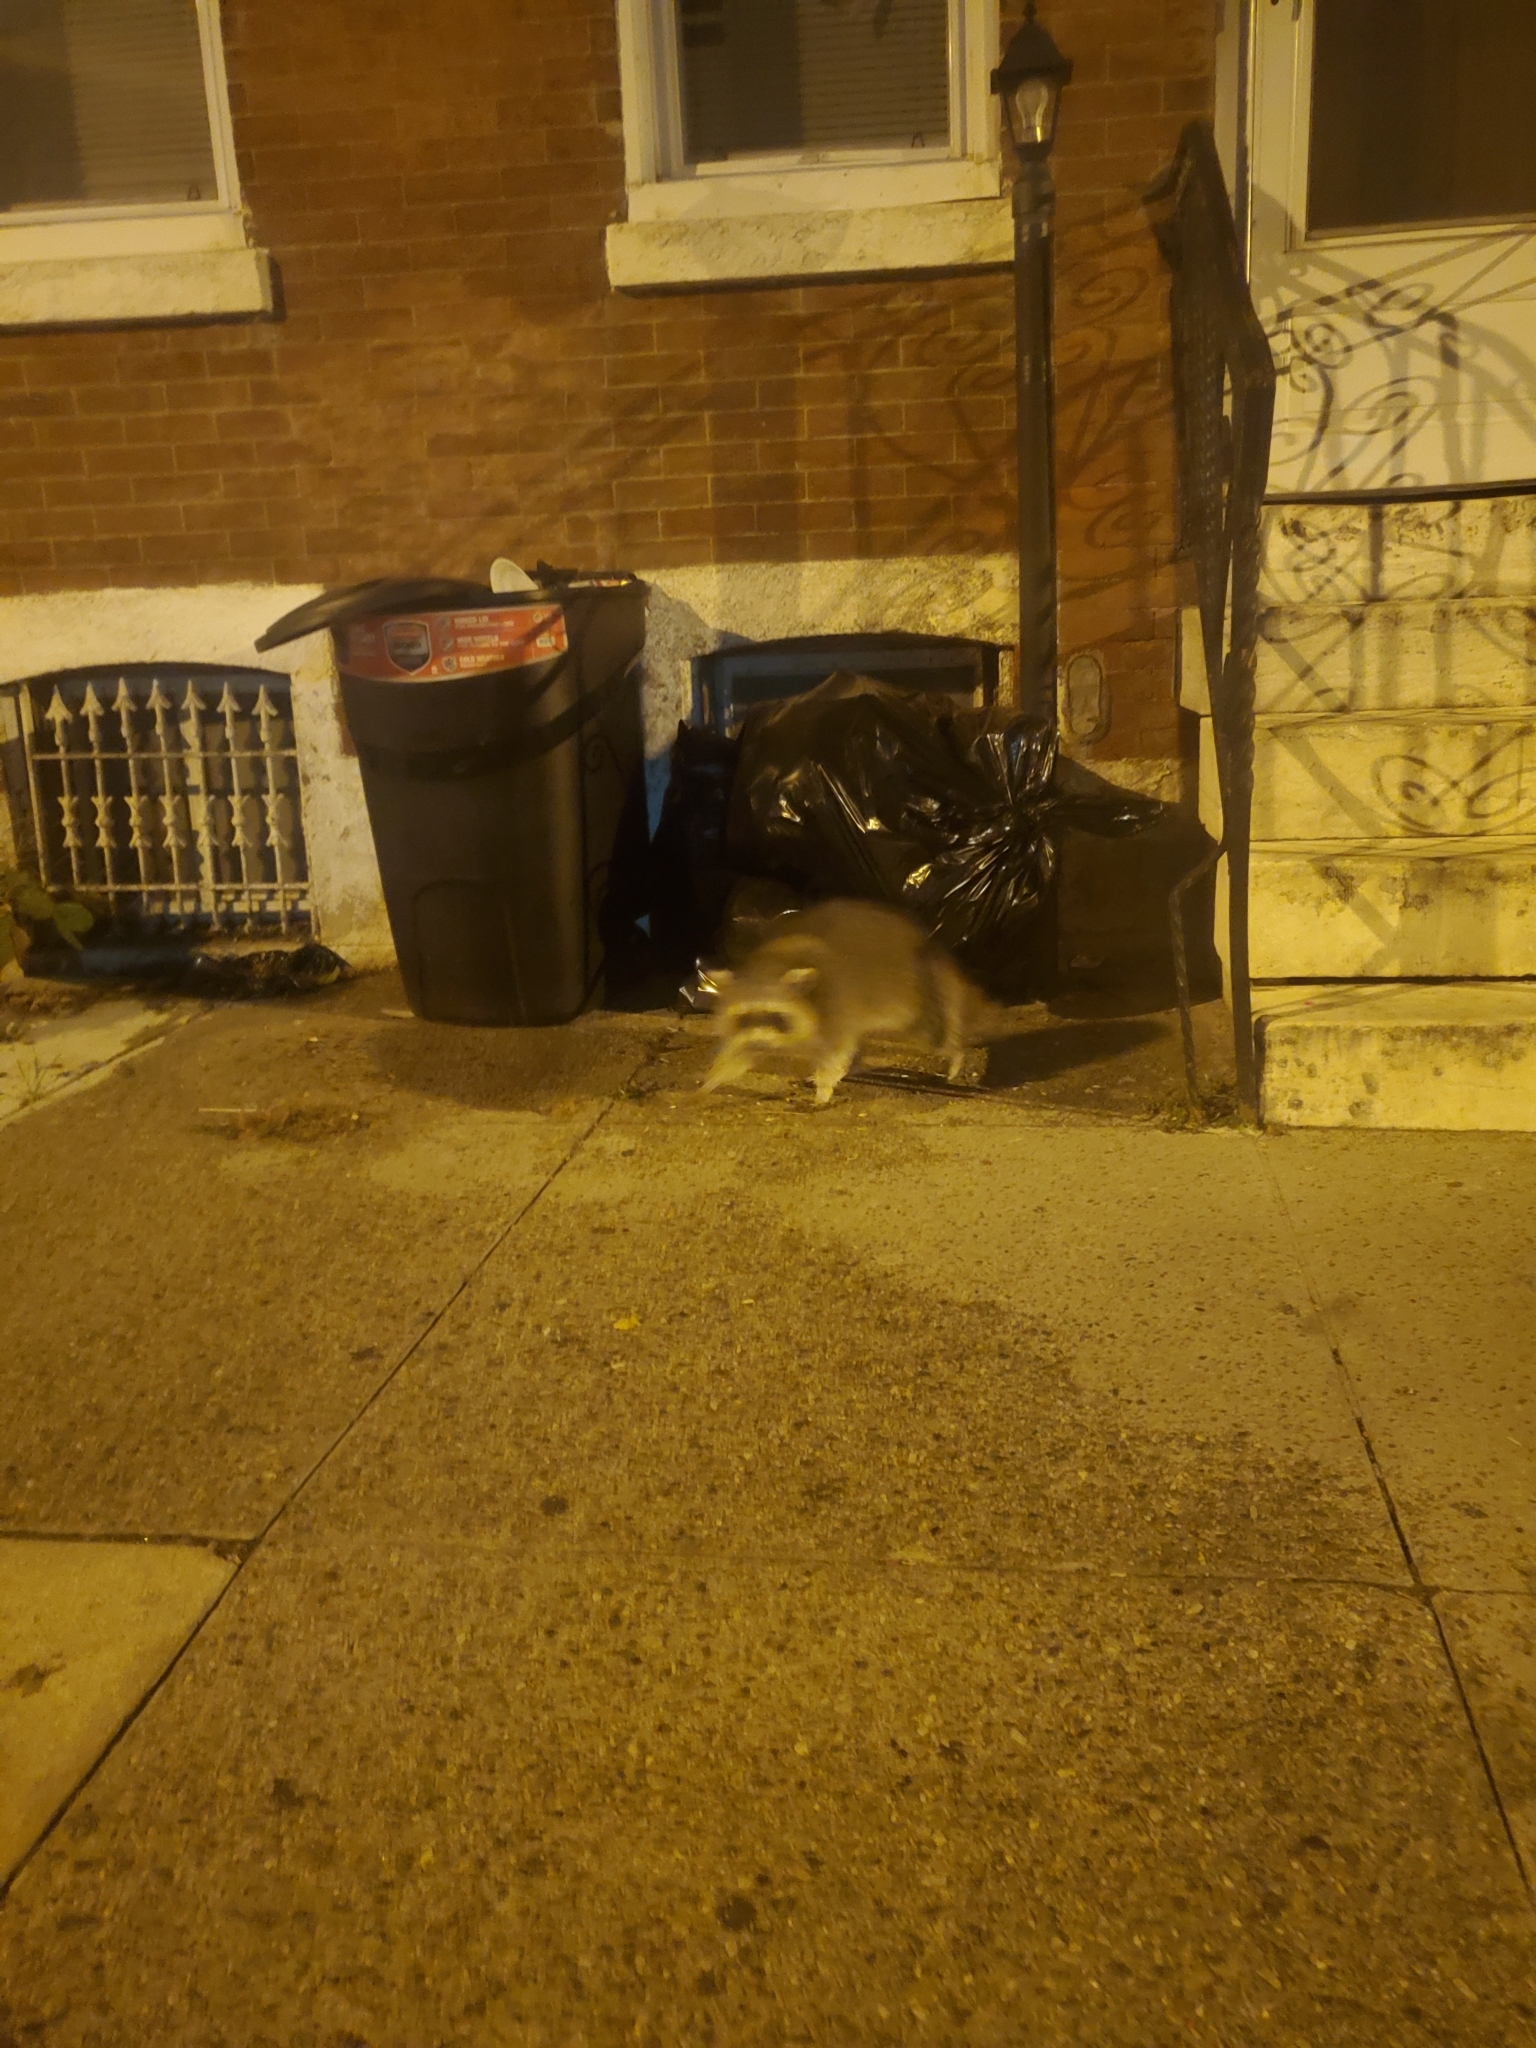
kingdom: Animalia
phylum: Chordata
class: Mammalia
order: Carnivora
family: Procyonidae
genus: Procyon
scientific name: Procyon lotor
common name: Raccoon
